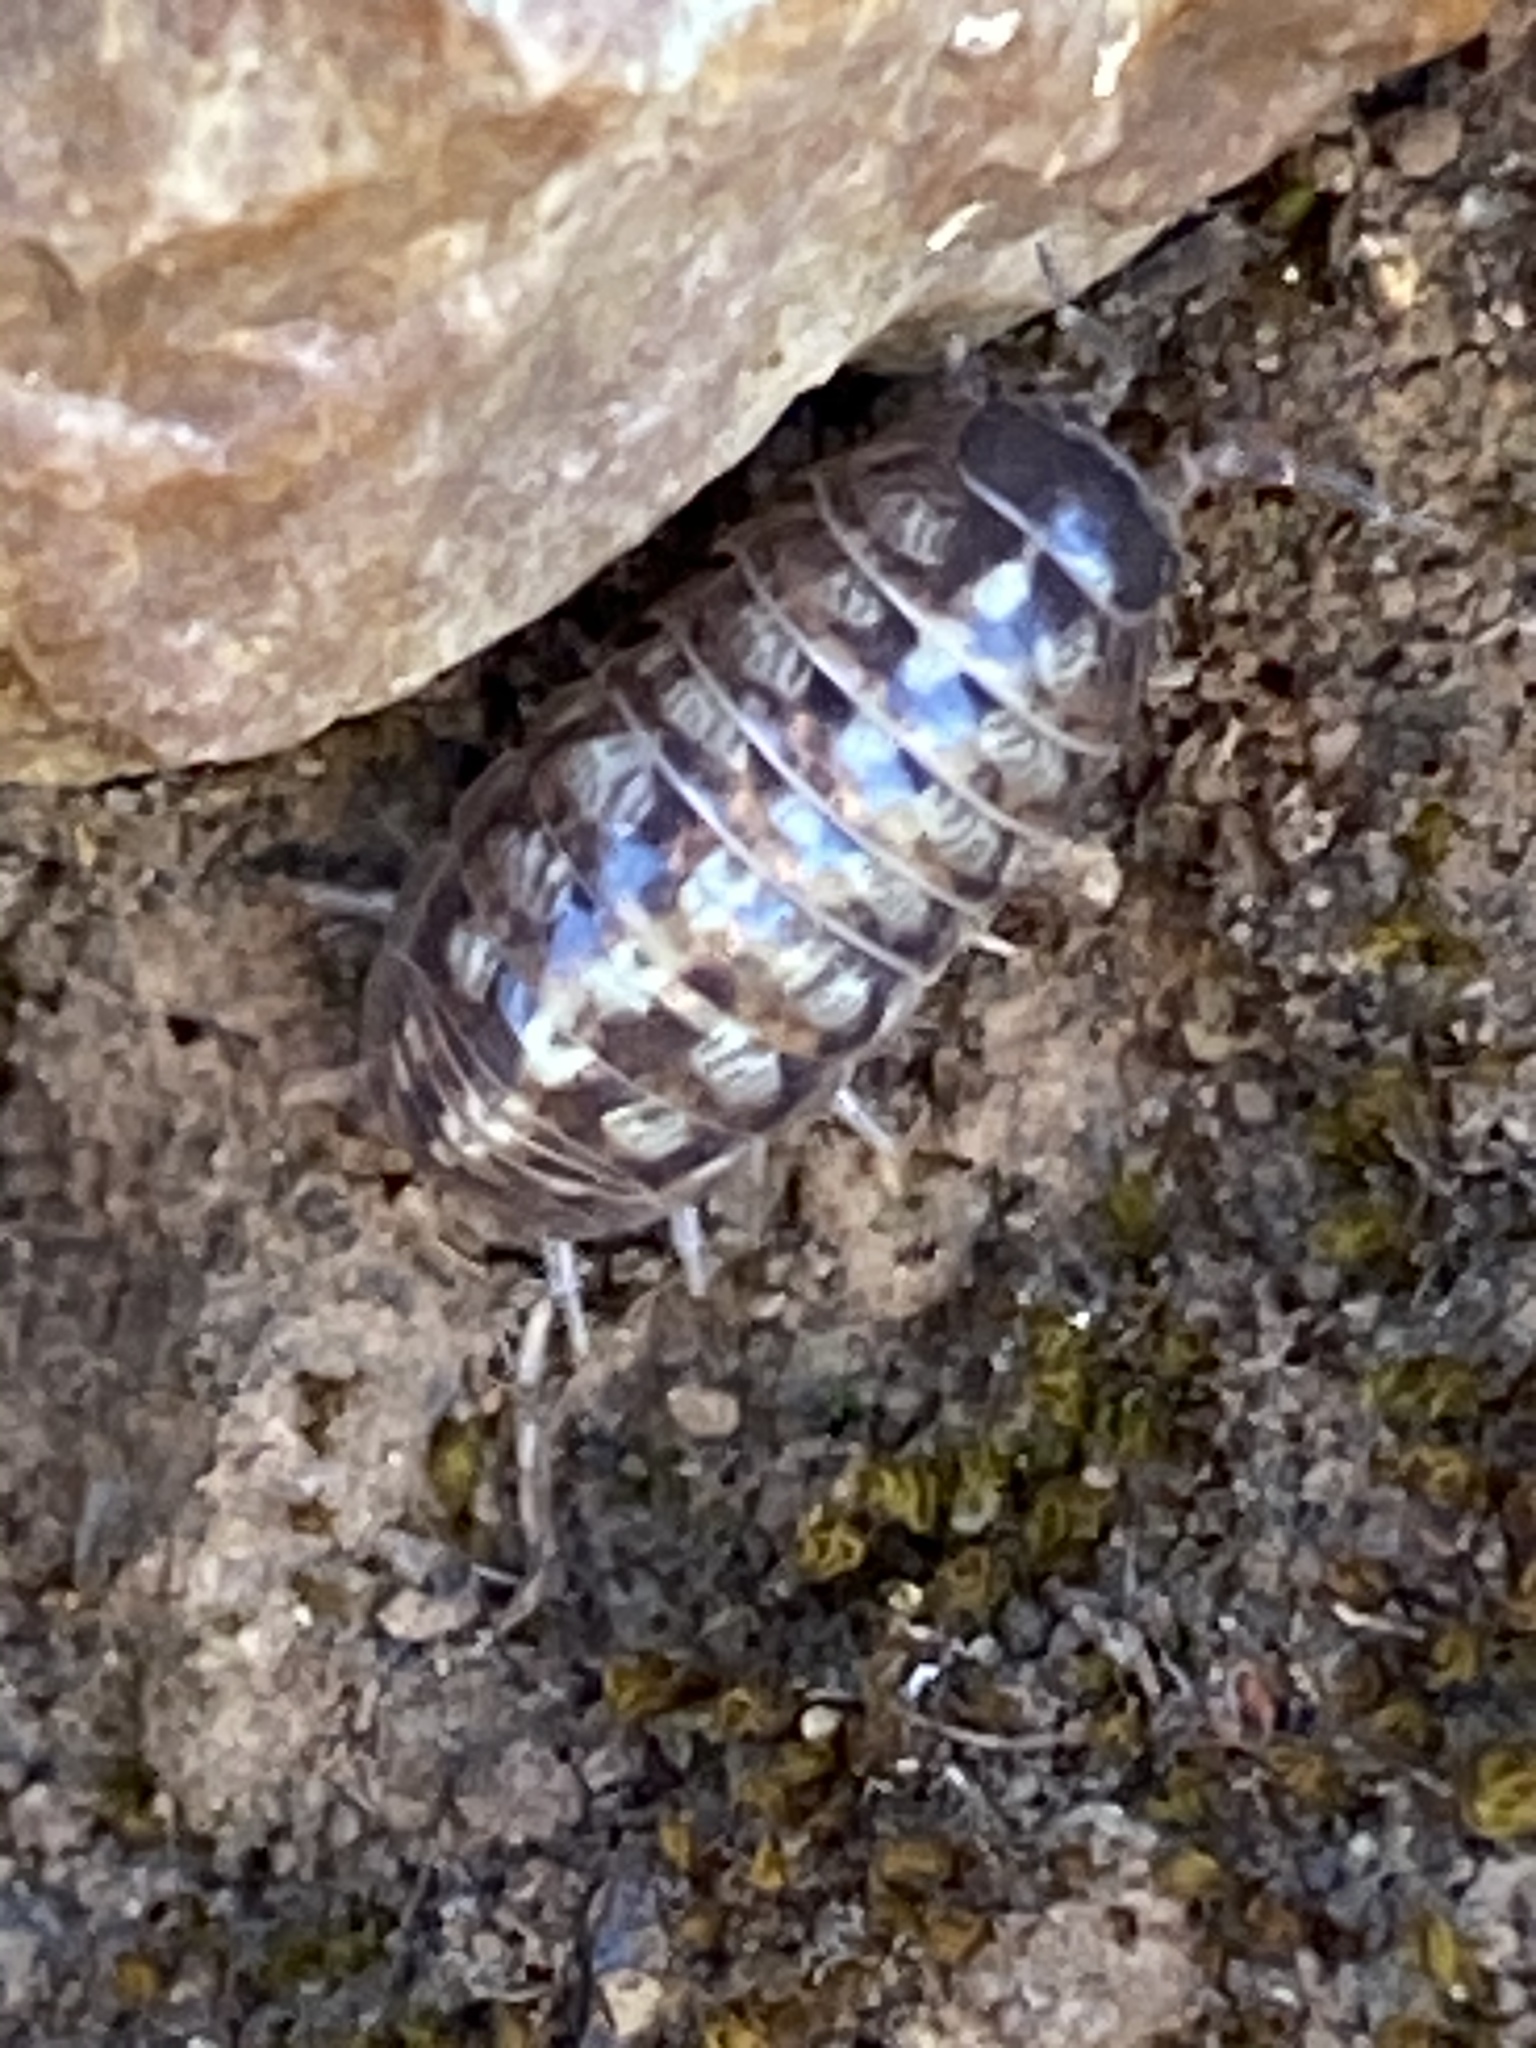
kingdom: Animalia
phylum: Arthropoda
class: Malacostraca
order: Isopoda
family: Armadillidiidae
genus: Armadillidium
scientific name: Armadillidium vulgare
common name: Common pill woodlouse
